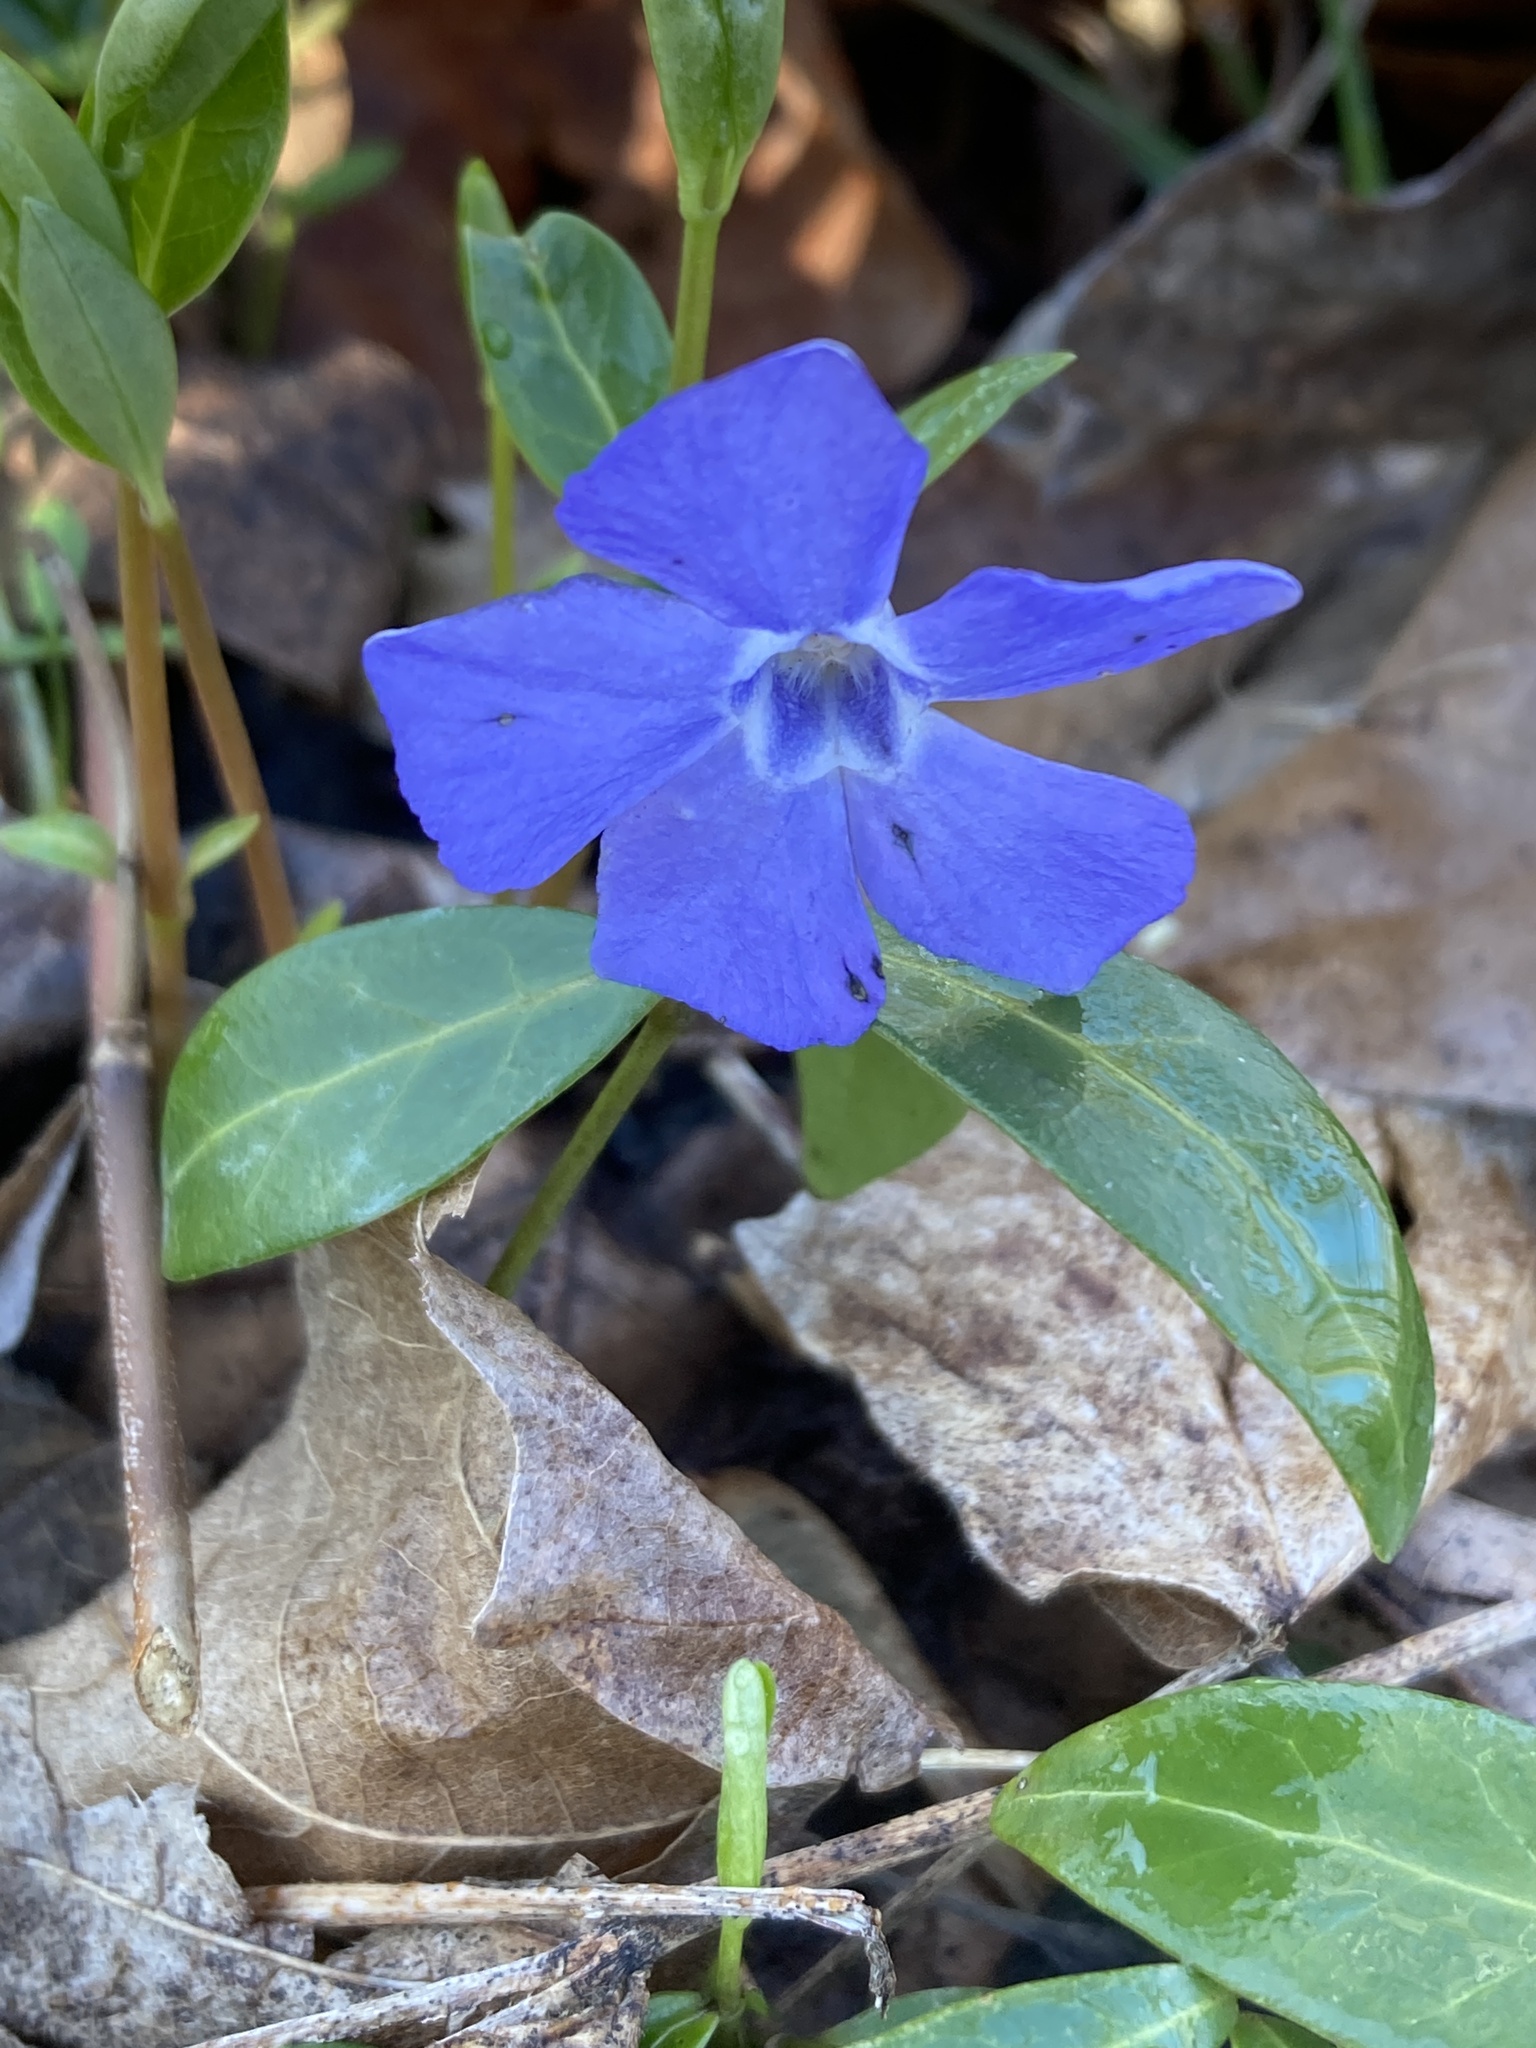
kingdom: Plantae
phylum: Tracheophyta
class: Magnoliopsida
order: Gentianales
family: Apocynaceae
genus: Vinca
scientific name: Vinca minor
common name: Lesser periwinkle
